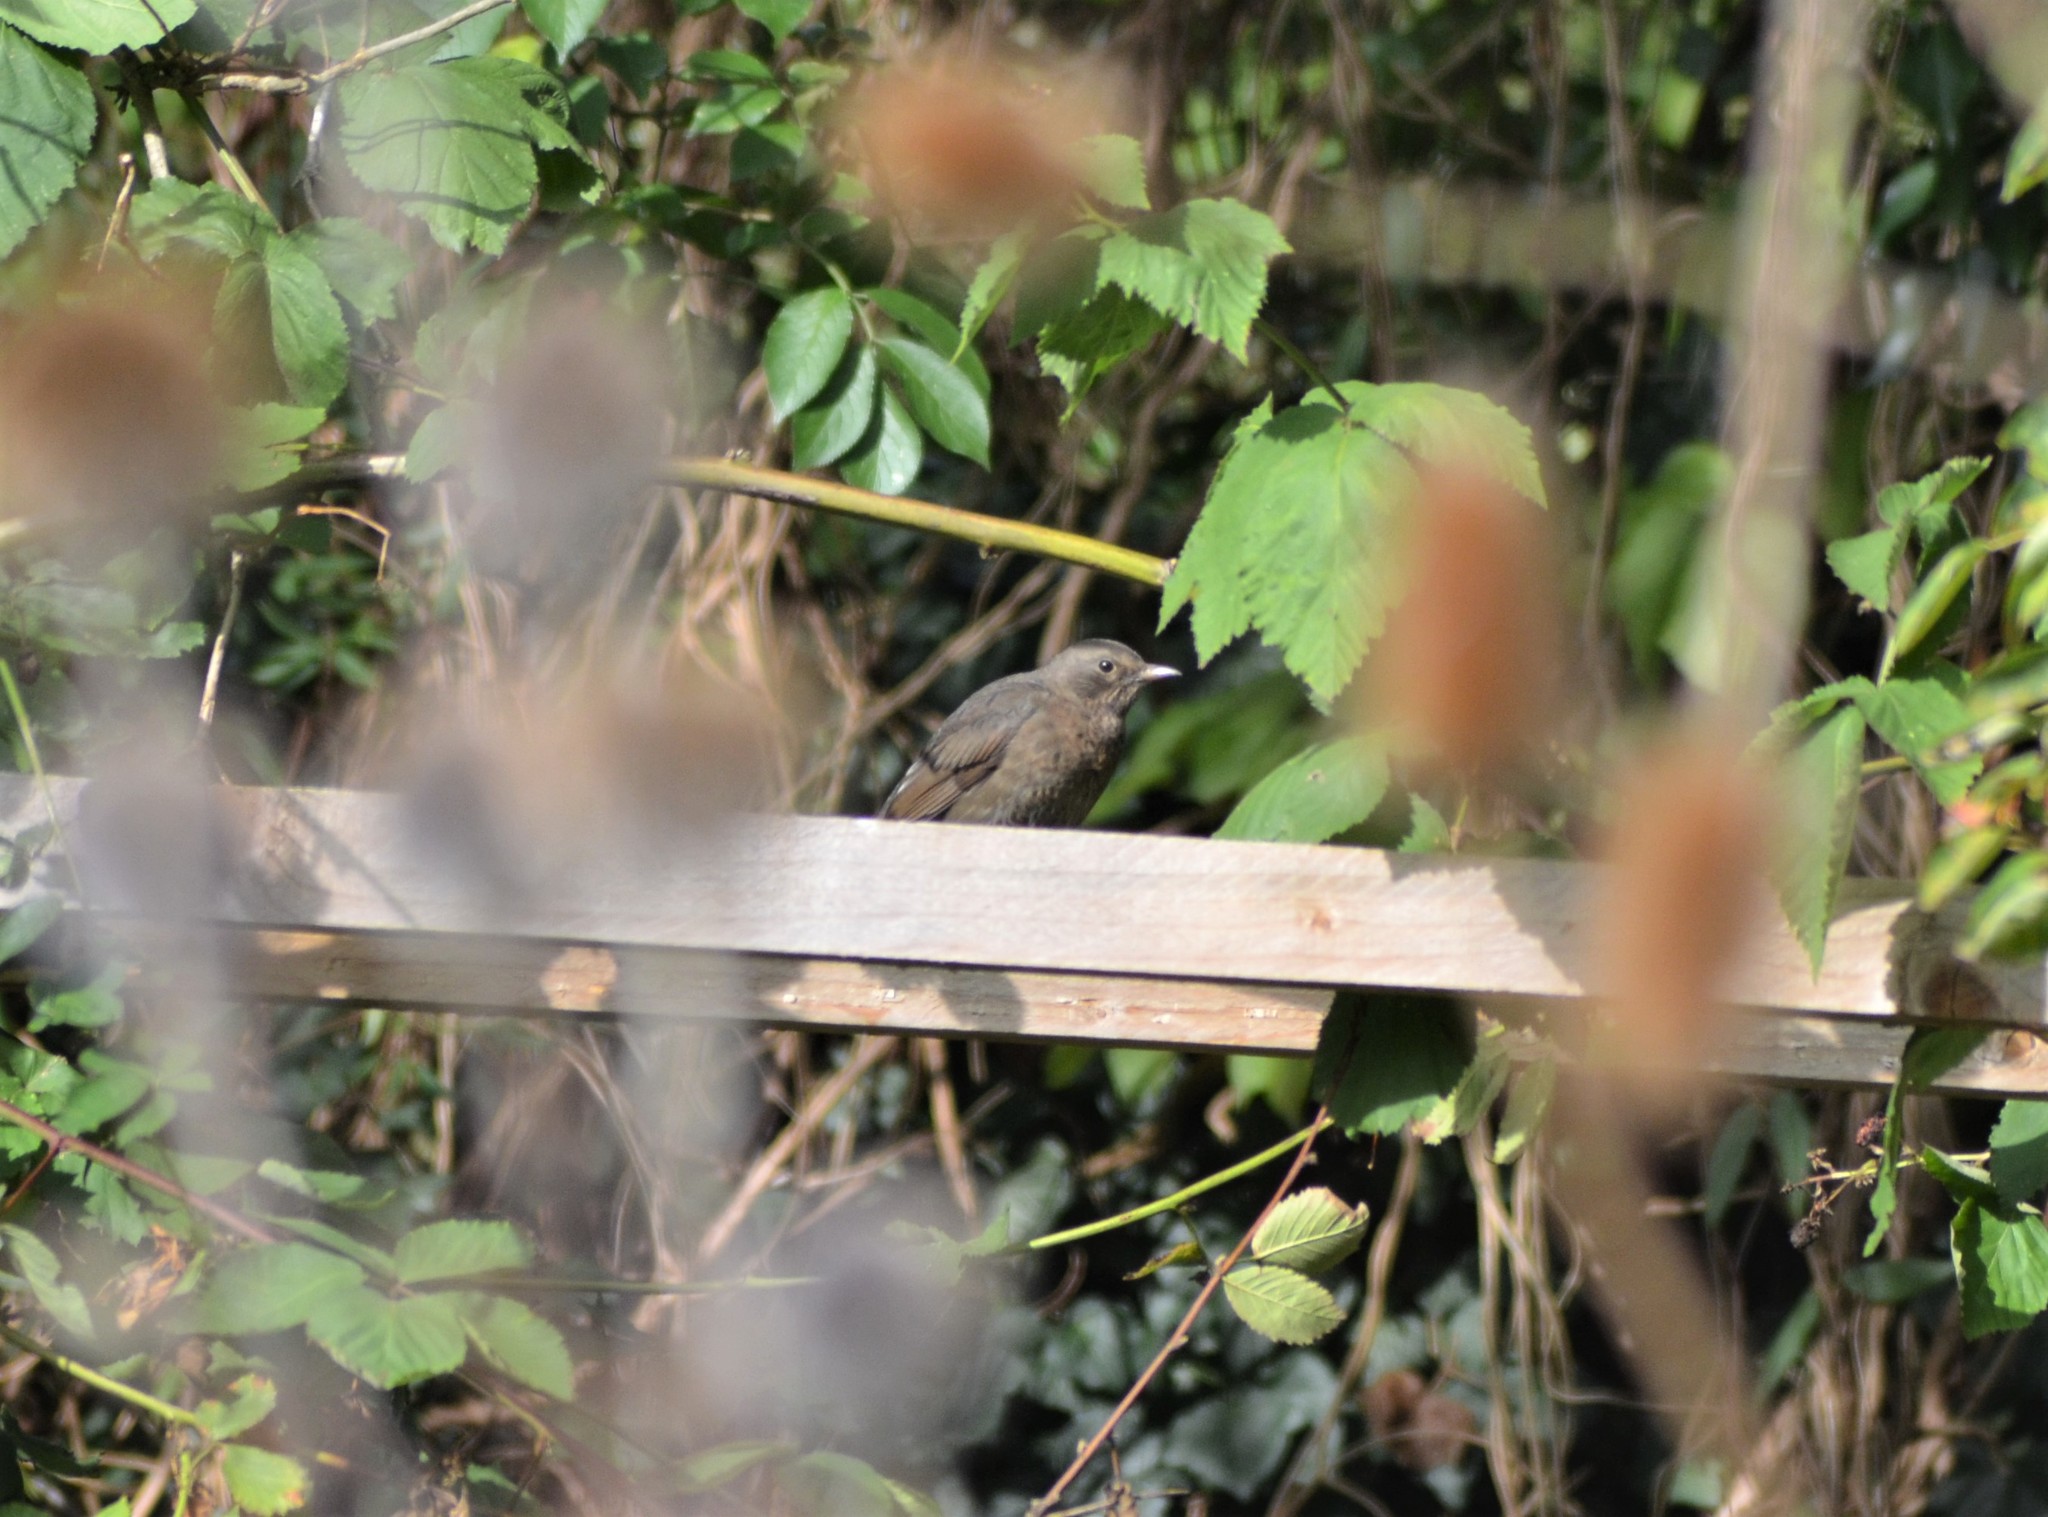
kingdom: Animalia
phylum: Chordata
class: Aves
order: Passeriformes
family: Turdidae
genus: Turdus
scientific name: Turdus merula
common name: Common blackbird
